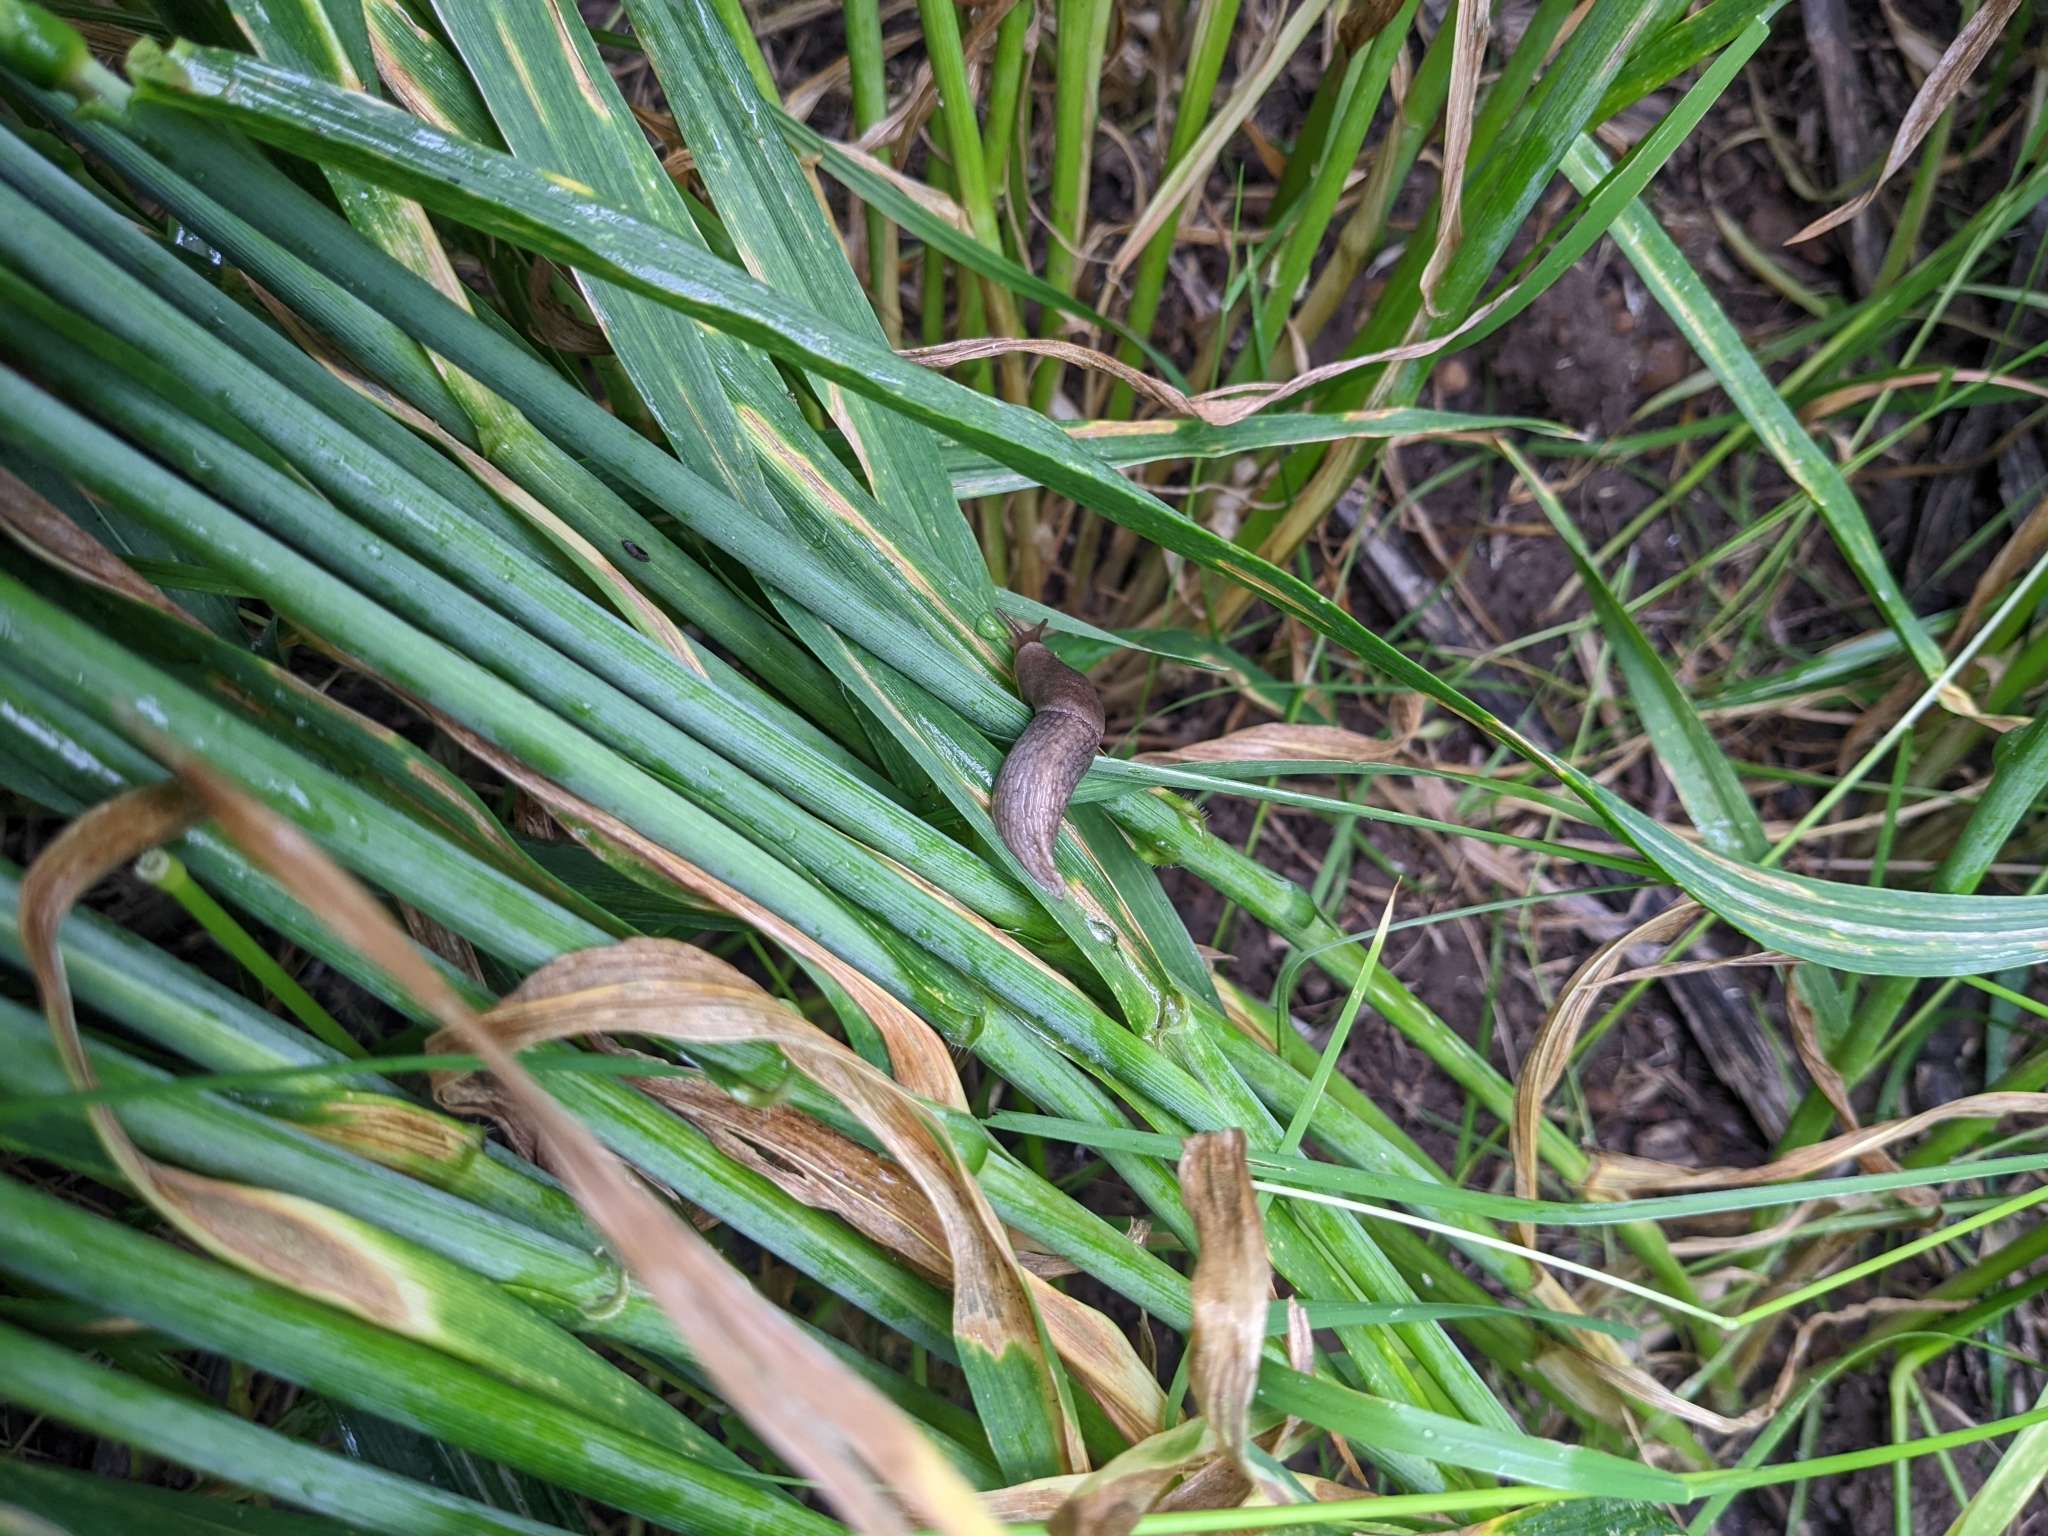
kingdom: Animalia
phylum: Mollusca
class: Gastropoda
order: Stylommatophora
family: Agriolimacidae
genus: Deroceras
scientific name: Deroceras reticulatum
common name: Gray field slug
